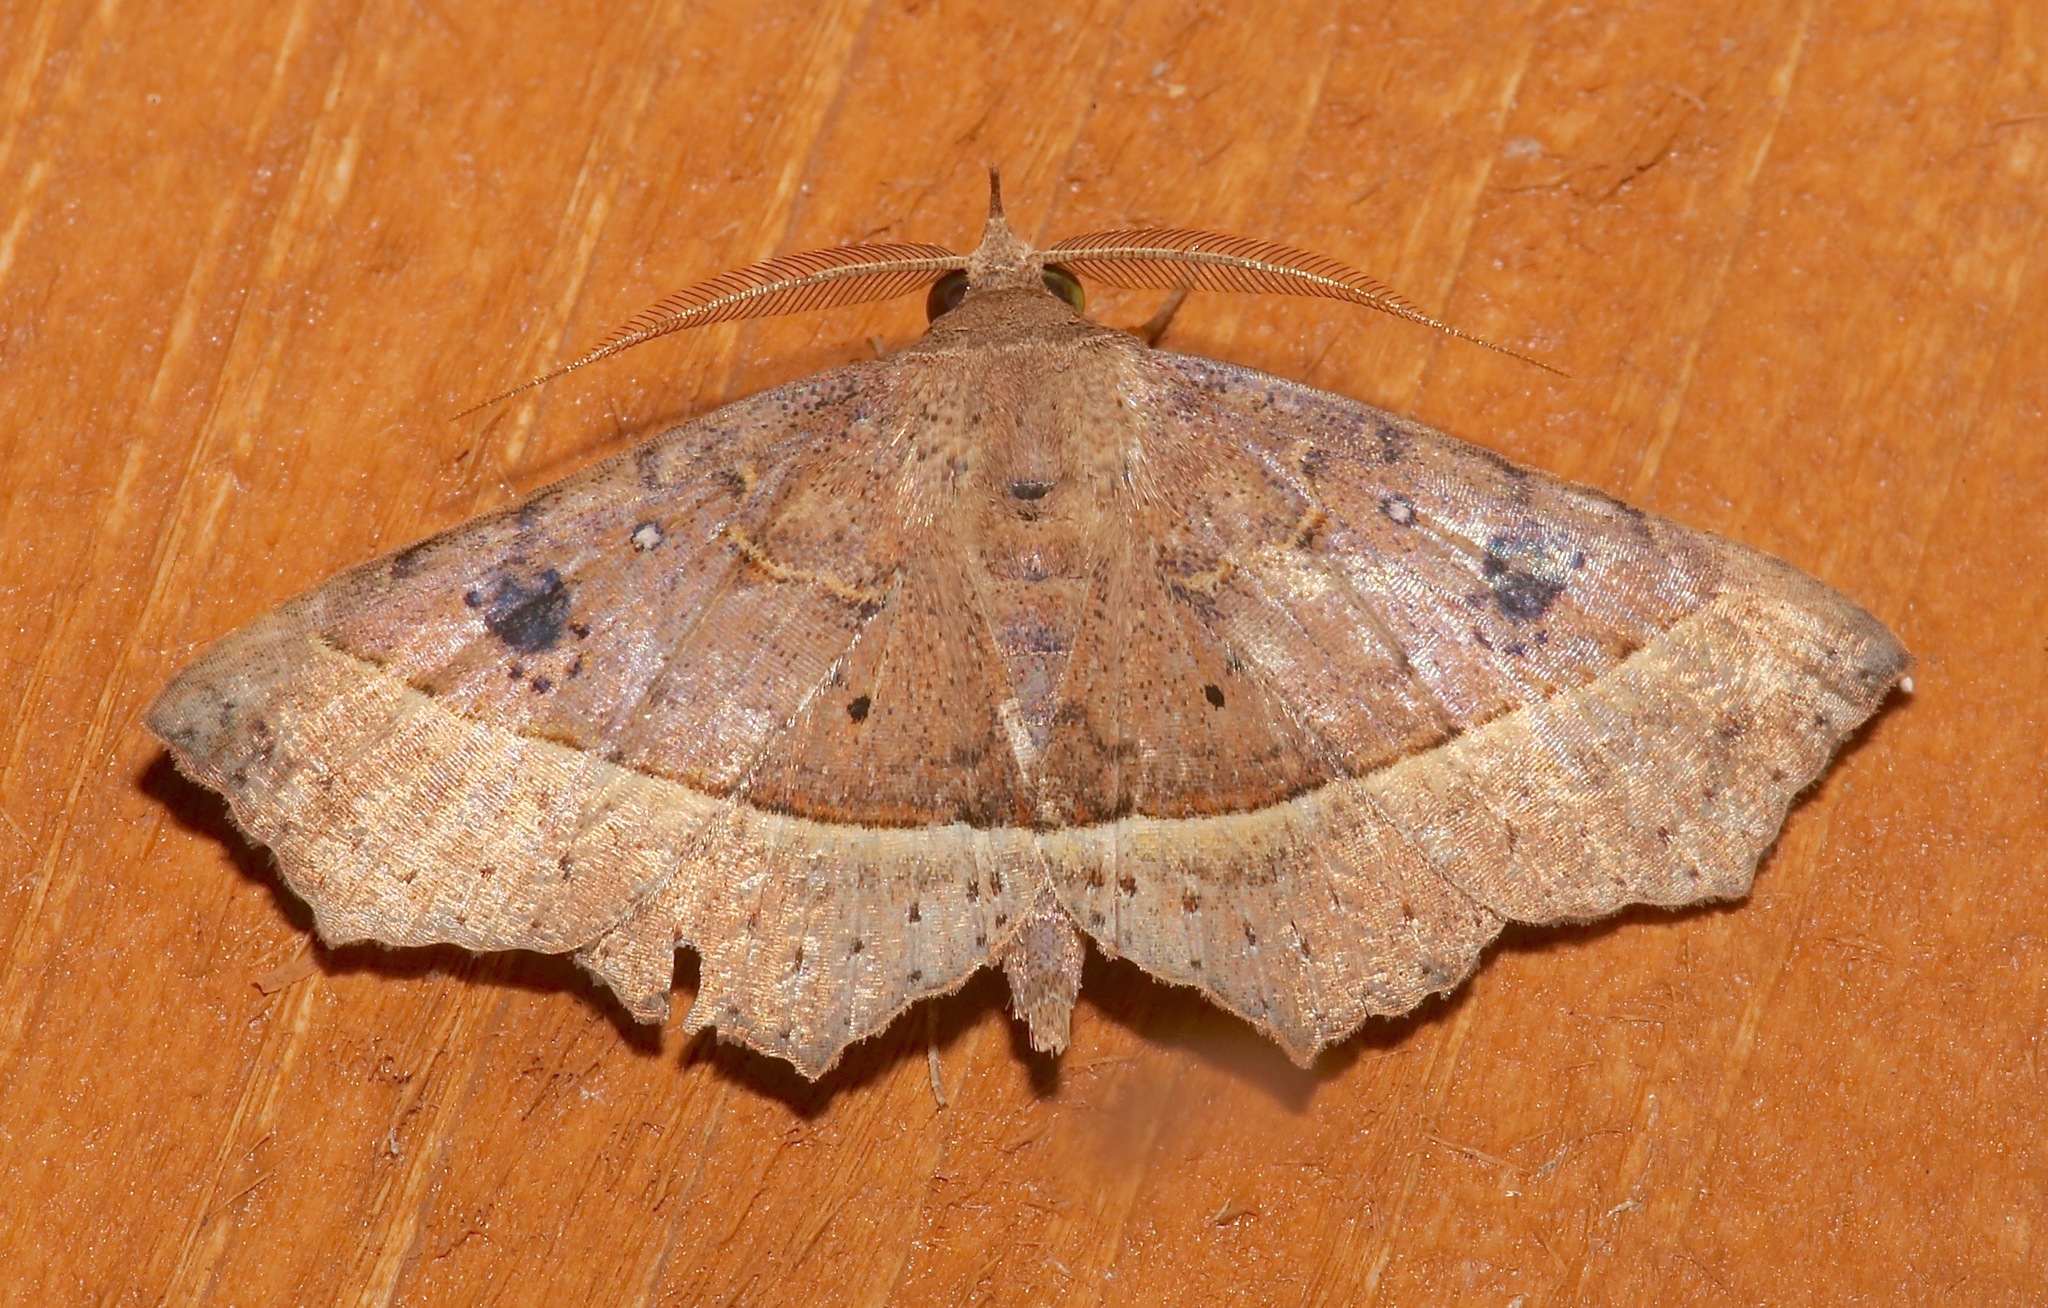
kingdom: Animalia
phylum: Arthropoda
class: Insecta
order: Lepidoptera
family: Erebidae
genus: Ephyrodes
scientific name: Ephyrodes cacata
